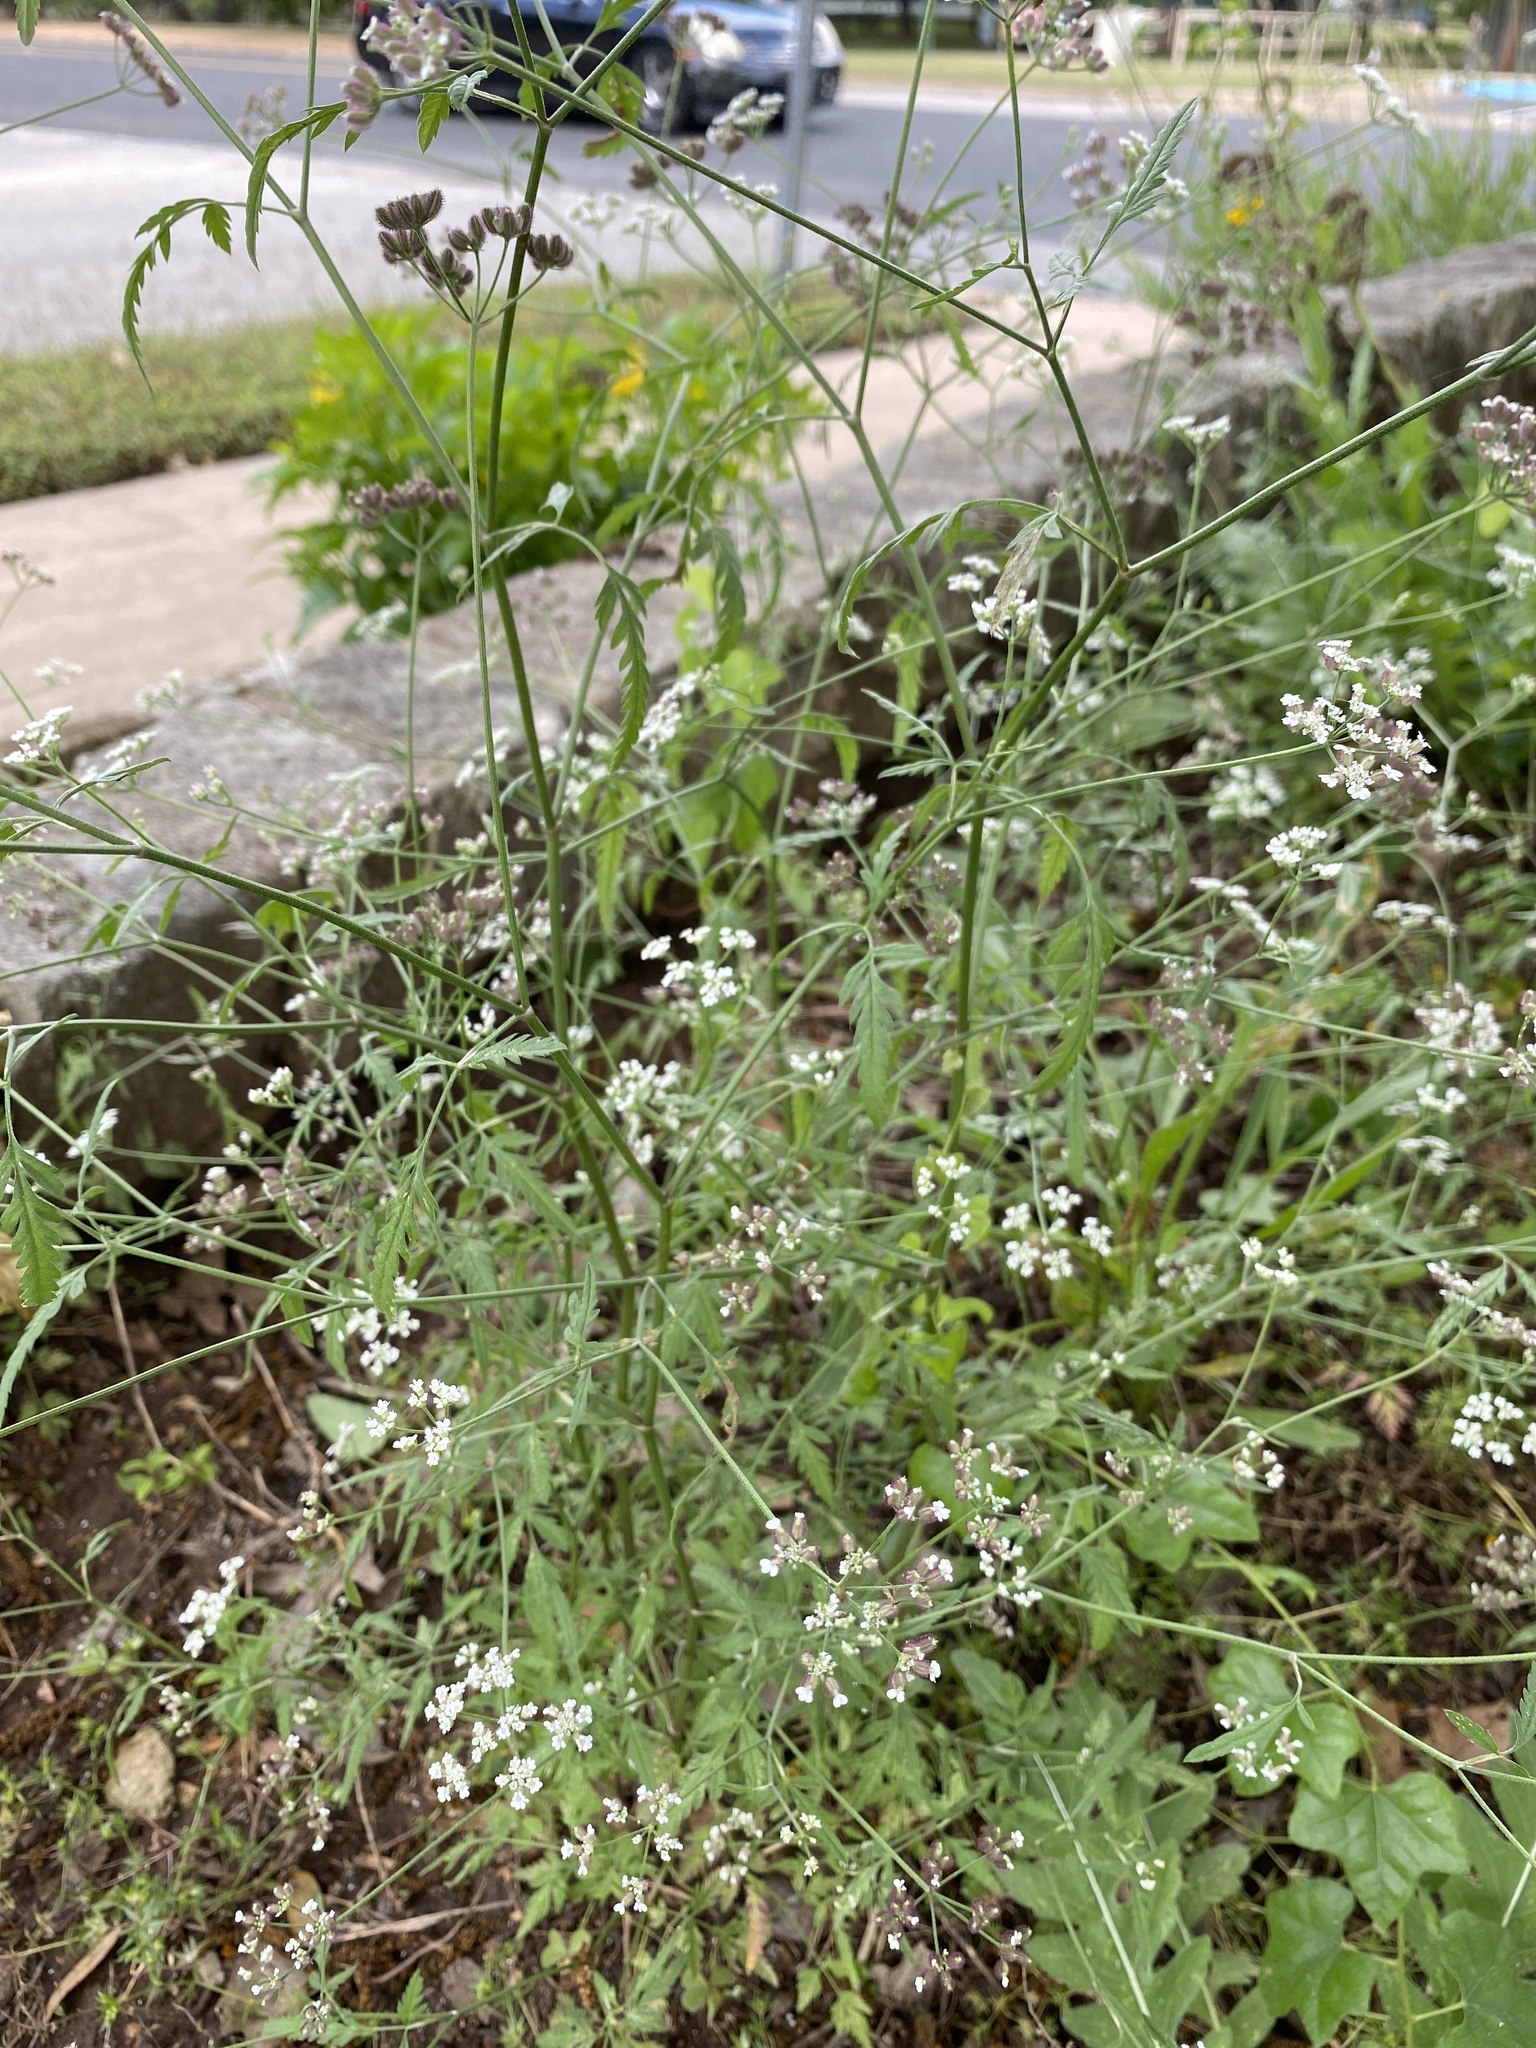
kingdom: Plantae
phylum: Tracheophyta
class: Magnoliopsida
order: Apiales
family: Apiaceae
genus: Torilis
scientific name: Torilis arvensis
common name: Spreading hedge-parsley
